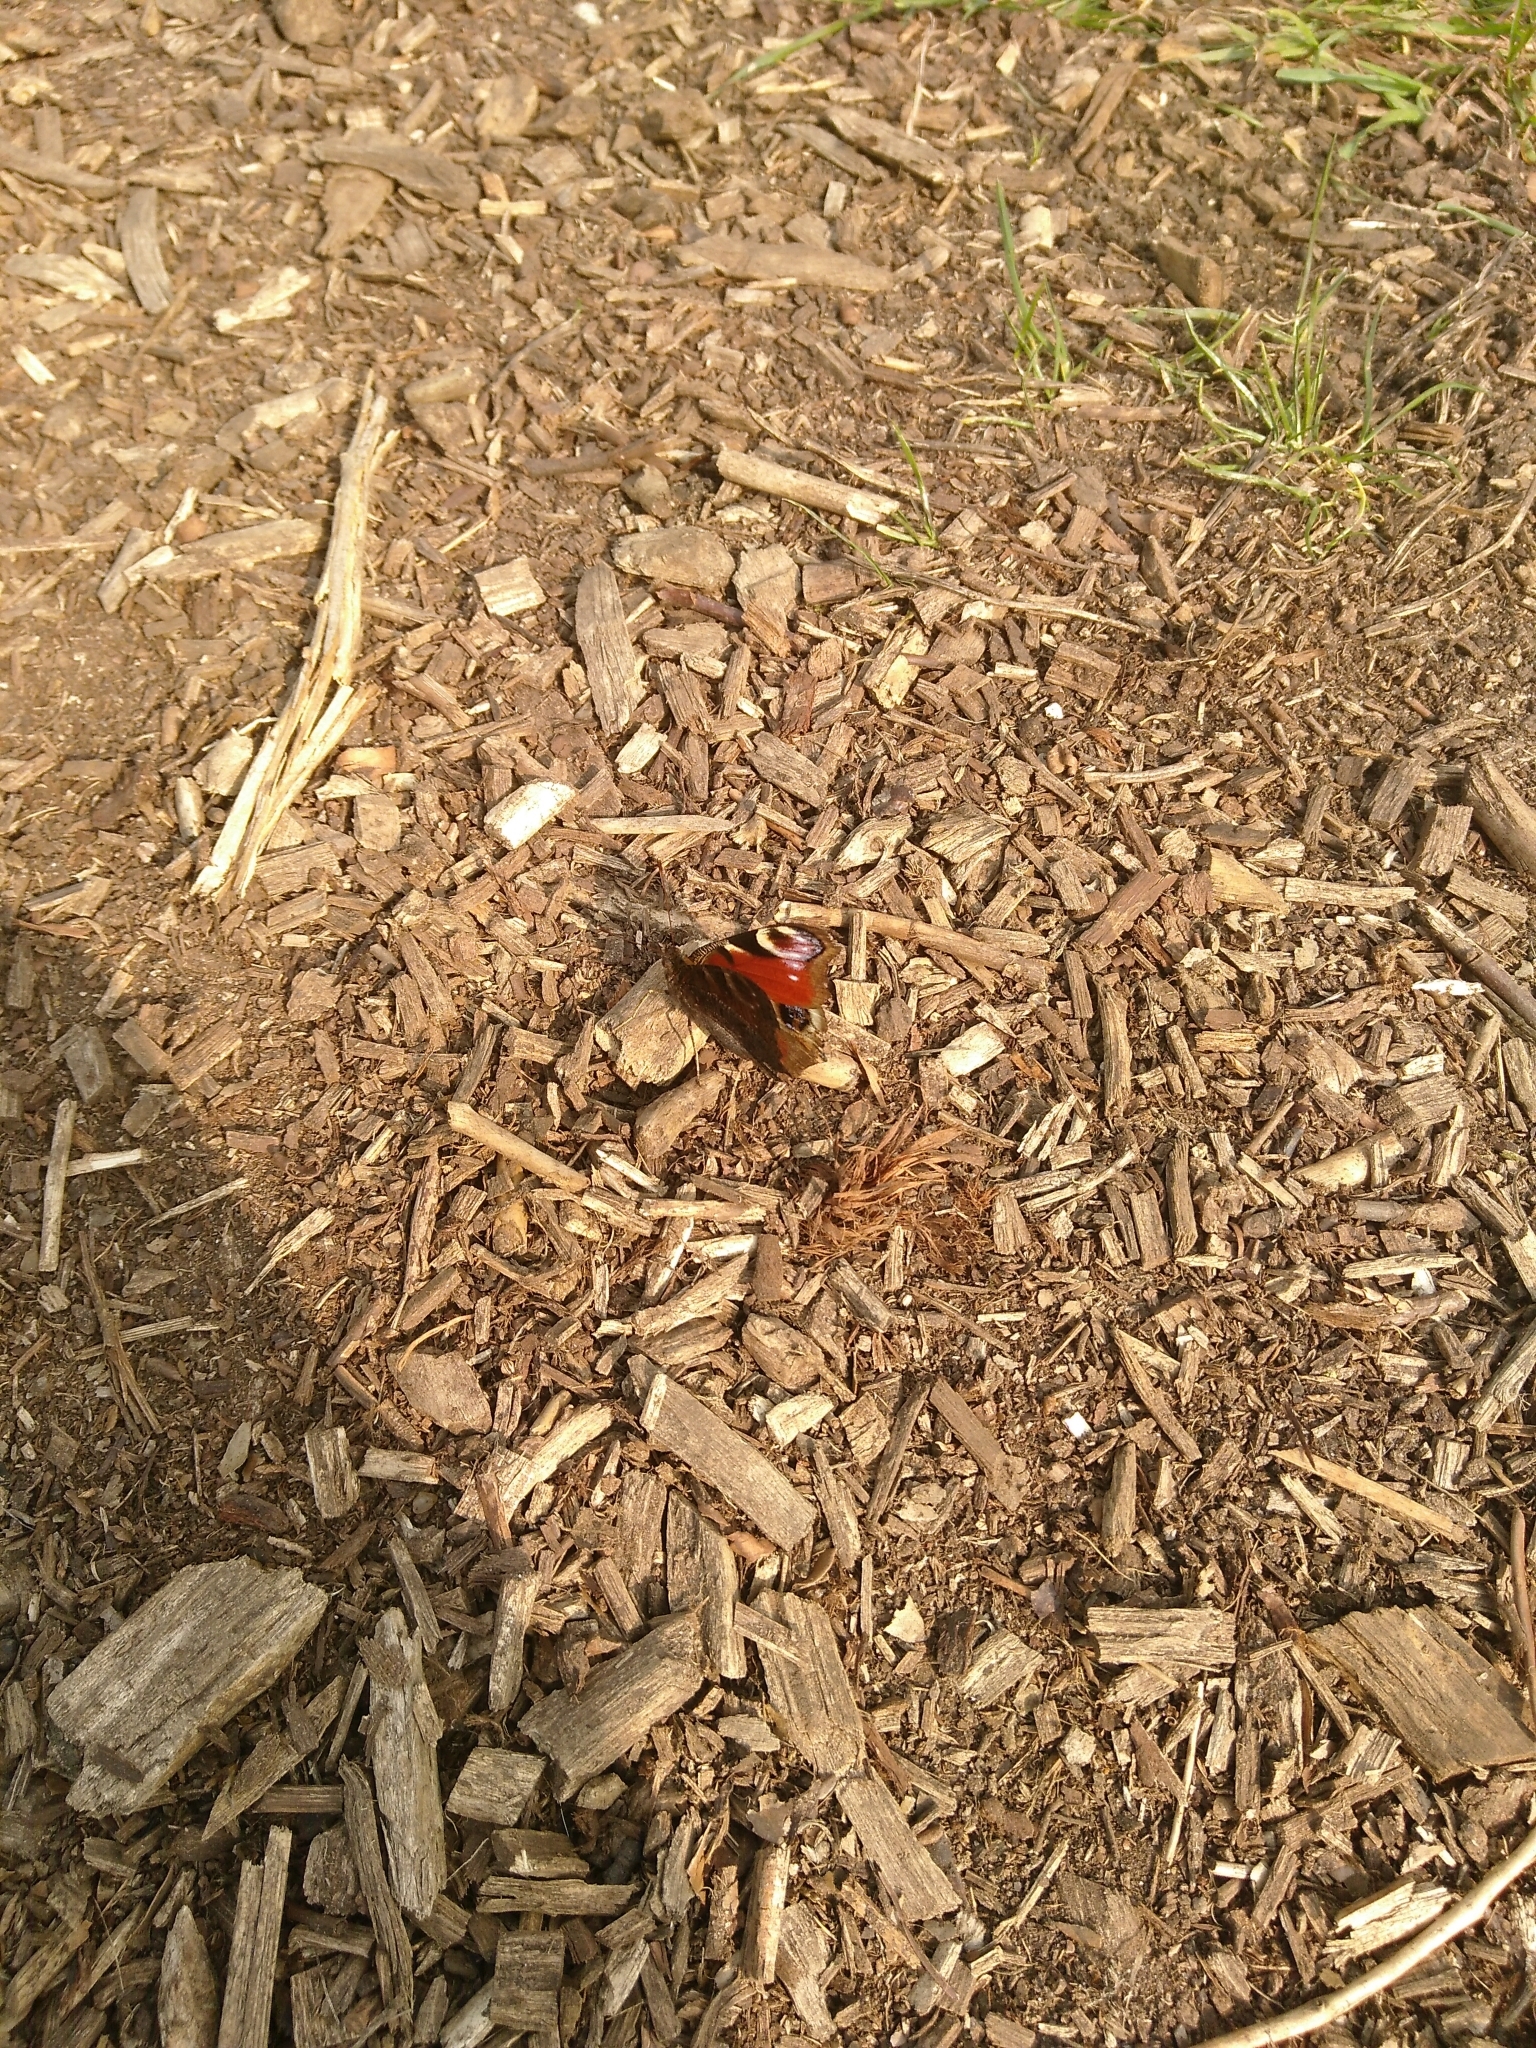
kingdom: Animalia
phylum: Arthropoda
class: Insecta
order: Lepidoptera
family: Nymphalidae
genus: Aglais
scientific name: Aglais io
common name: Peacock
